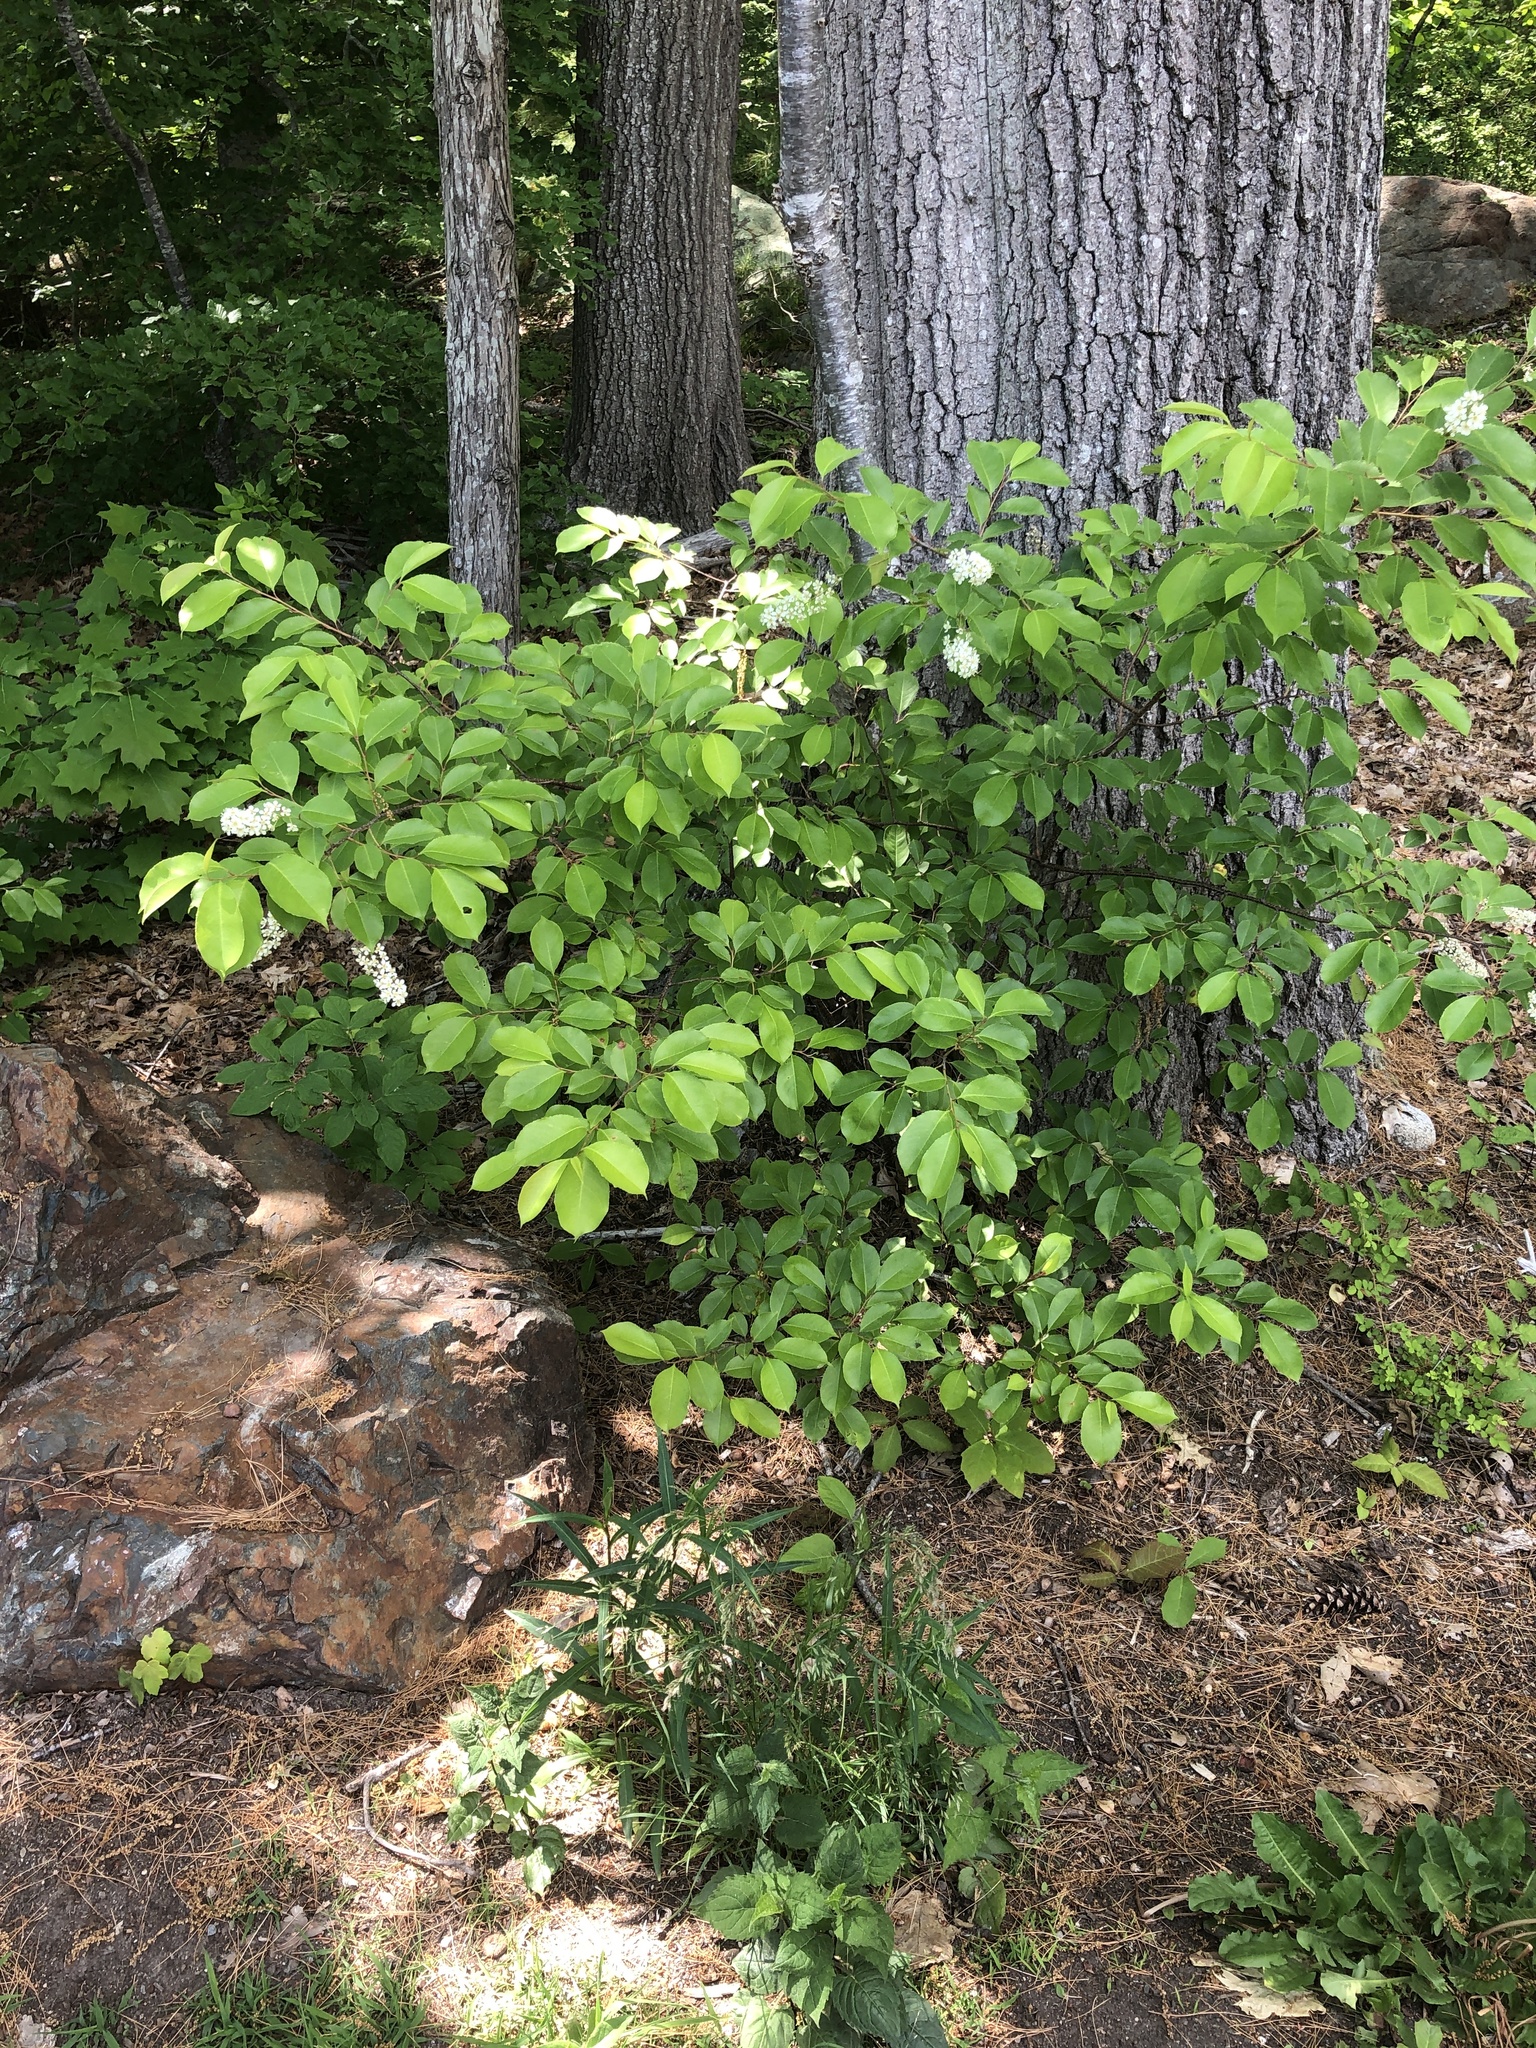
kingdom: Plantae
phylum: Tracheophyta
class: Magnoliopsida
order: Rosales
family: Rosaceae
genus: Prunus
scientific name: Prunus serotina
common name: Black cherry
